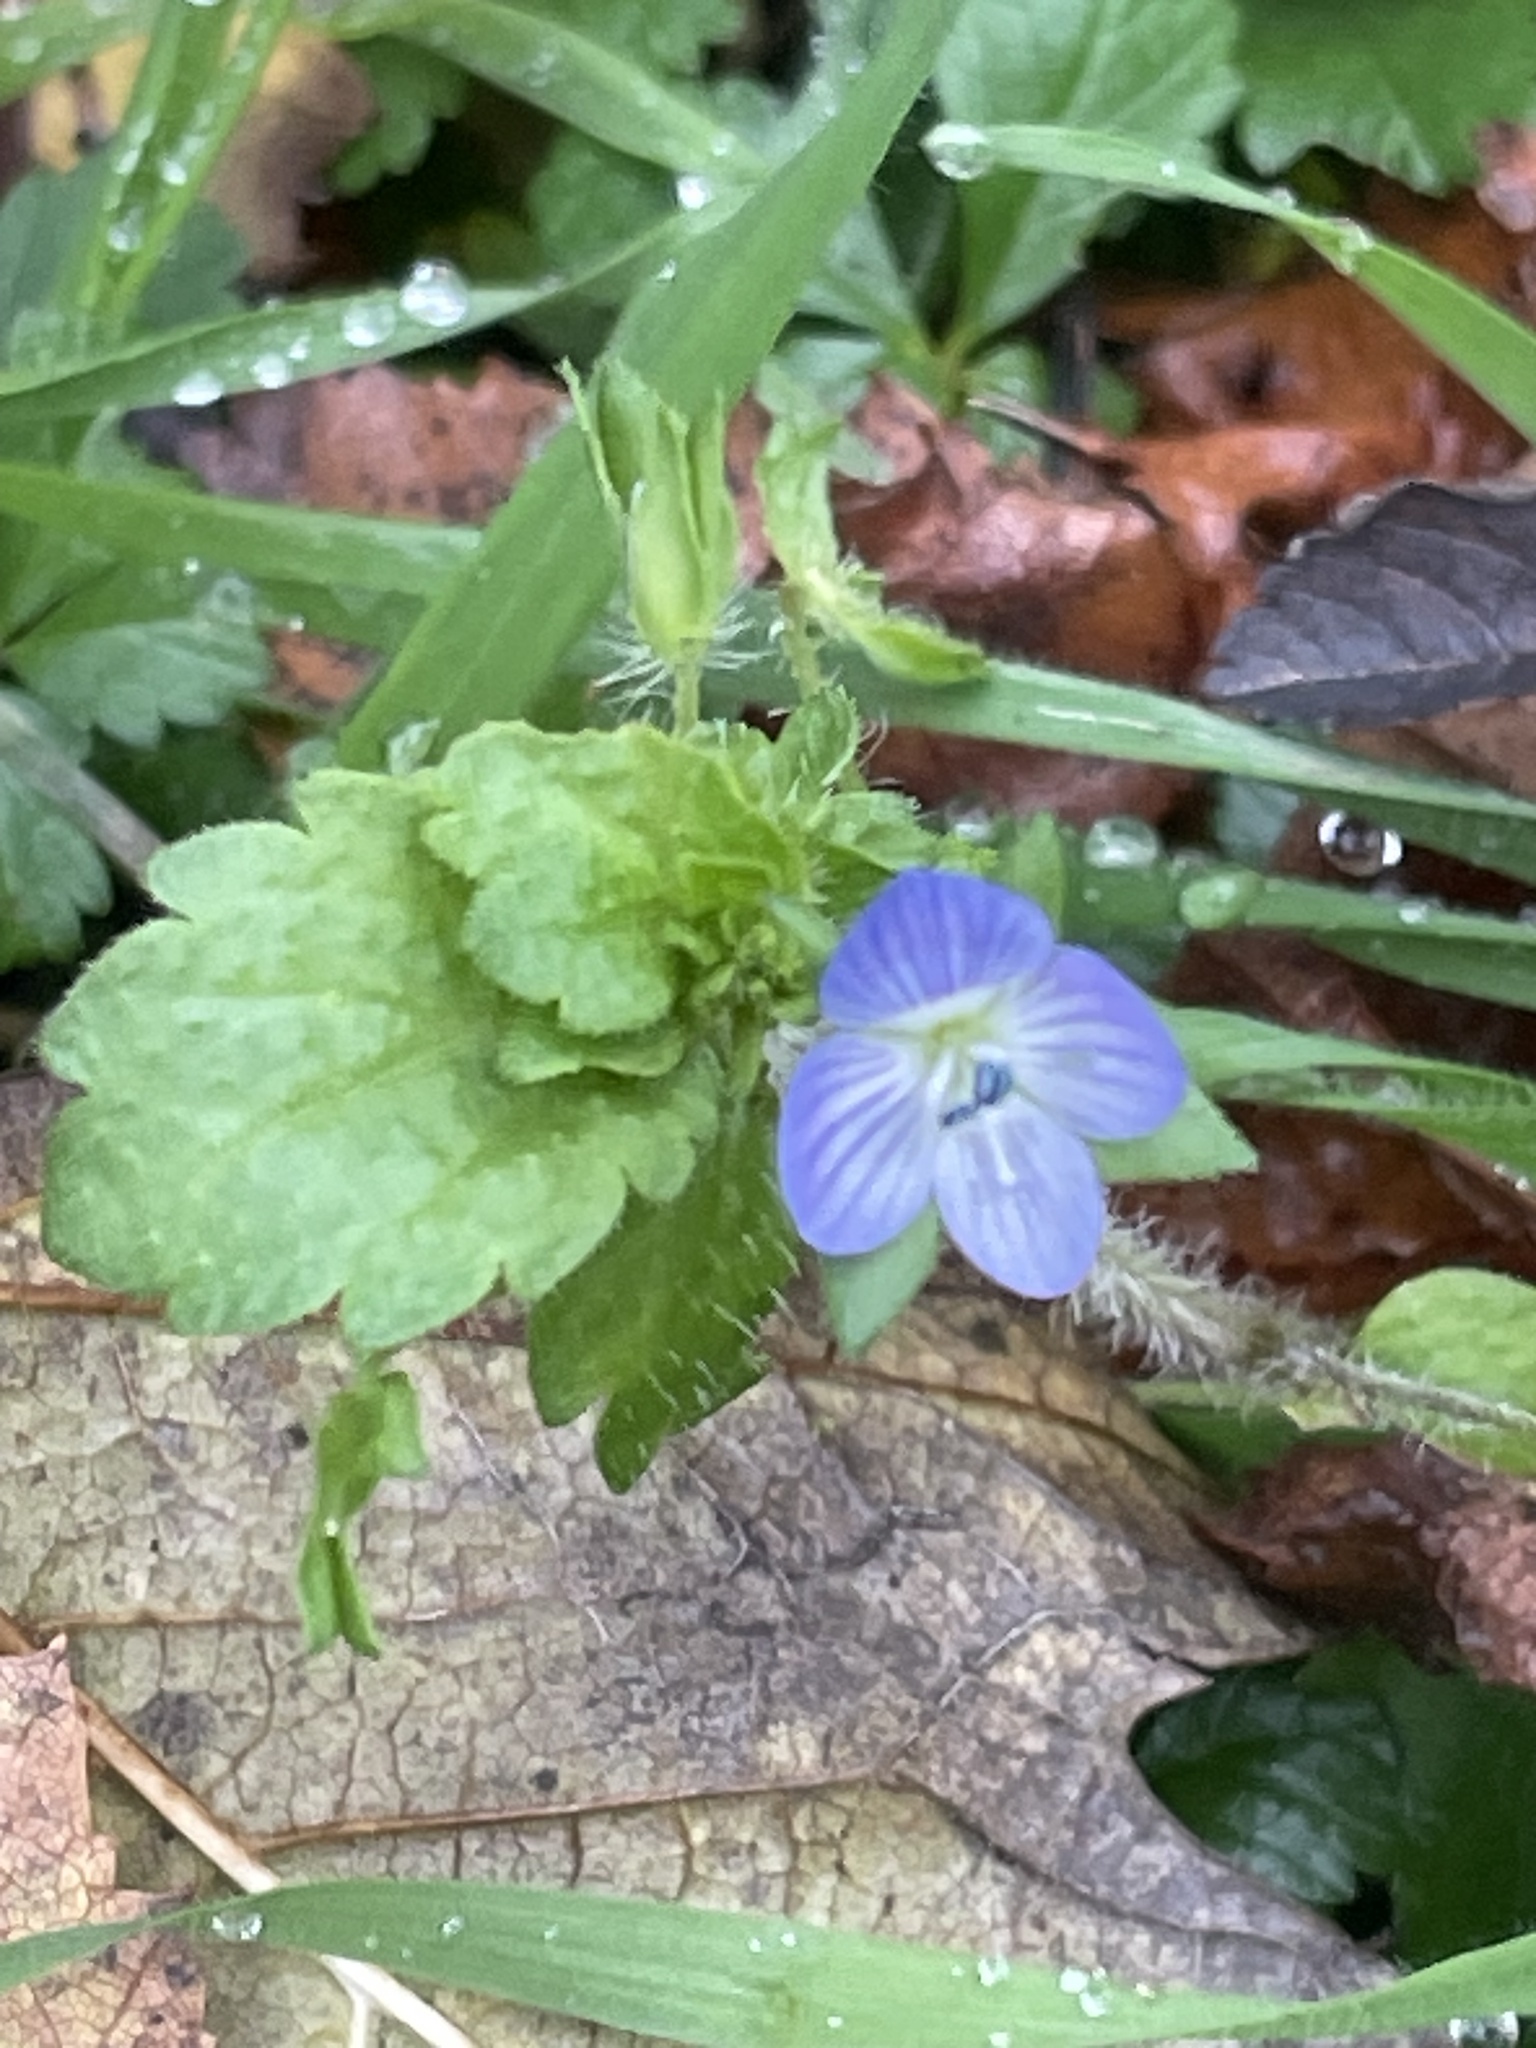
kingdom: Plantae
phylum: Tracheophyta
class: Magnoliopsida
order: Lamiales
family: Plantaginaceae
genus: Veronica
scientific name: Veronica persica
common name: Common field-speedwell
